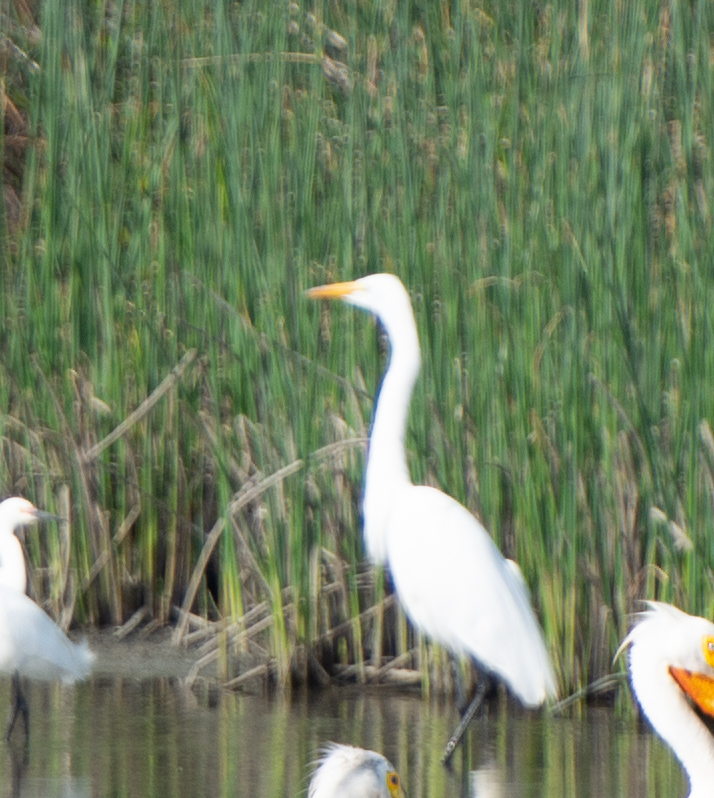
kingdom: Animalia
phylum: Chordata
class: Aves
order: Pelecaniformes
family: Ardeidae
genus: Ardea
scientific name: Ardea alba
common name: Great egret
